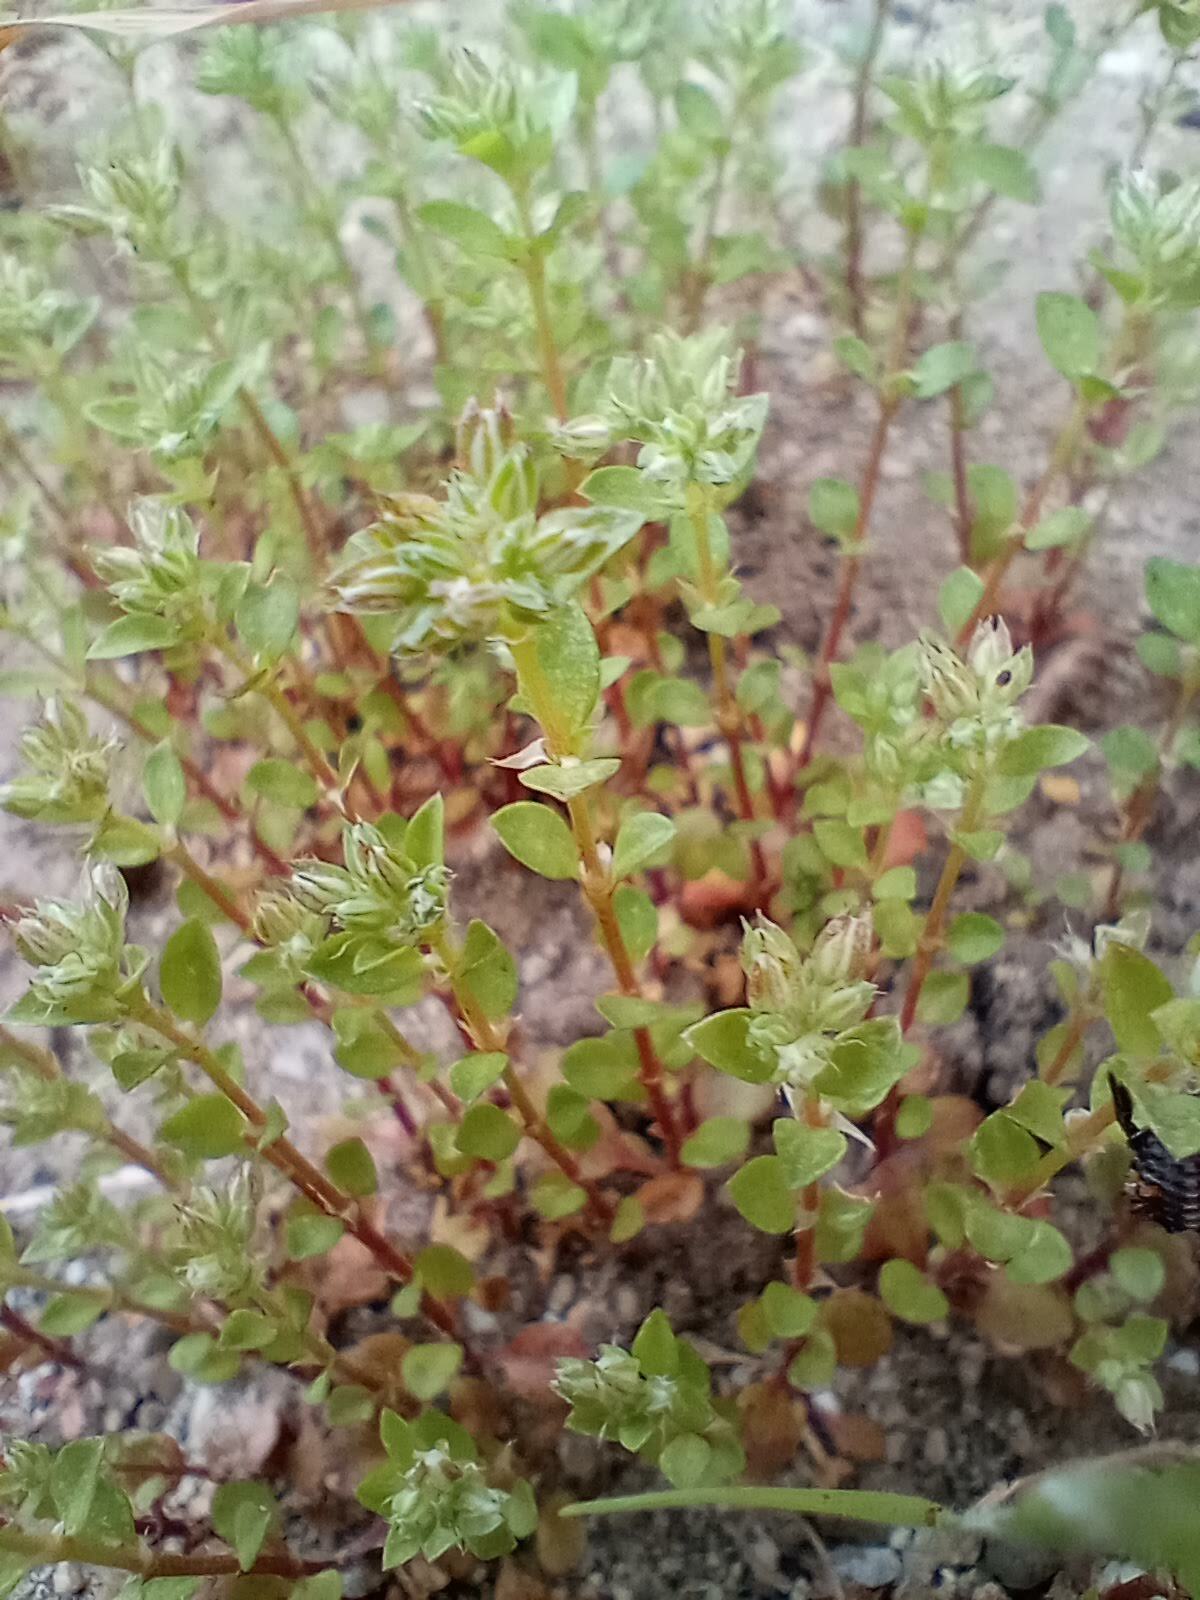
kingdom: Plantae
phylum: Tracheophyta
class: Magnoliopsida
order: Caryophyllales
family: Caryophyllaceae
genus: Polycarpon
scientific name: Polycarpon tetraphyllum
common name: Four-leaved all-seed
